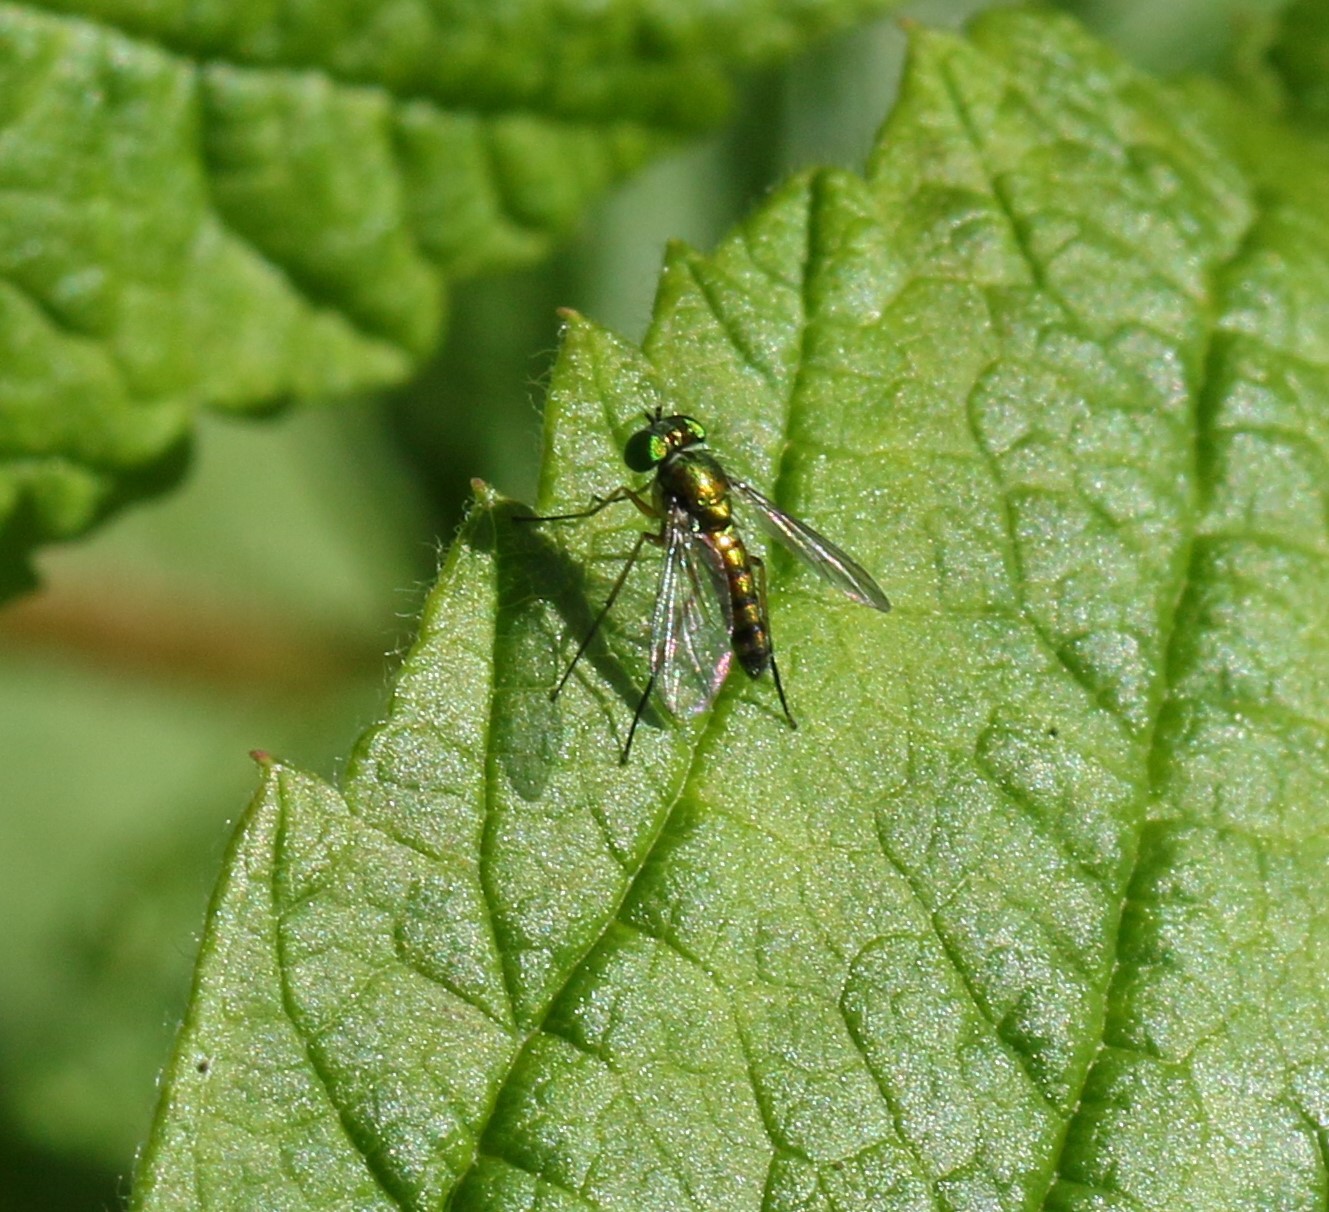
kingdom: Animalia
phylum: Arthropoda
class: Insecta
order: Diptera
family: Dolichopodidae
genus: Condylostylus
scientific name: Condylostylus flavipes
